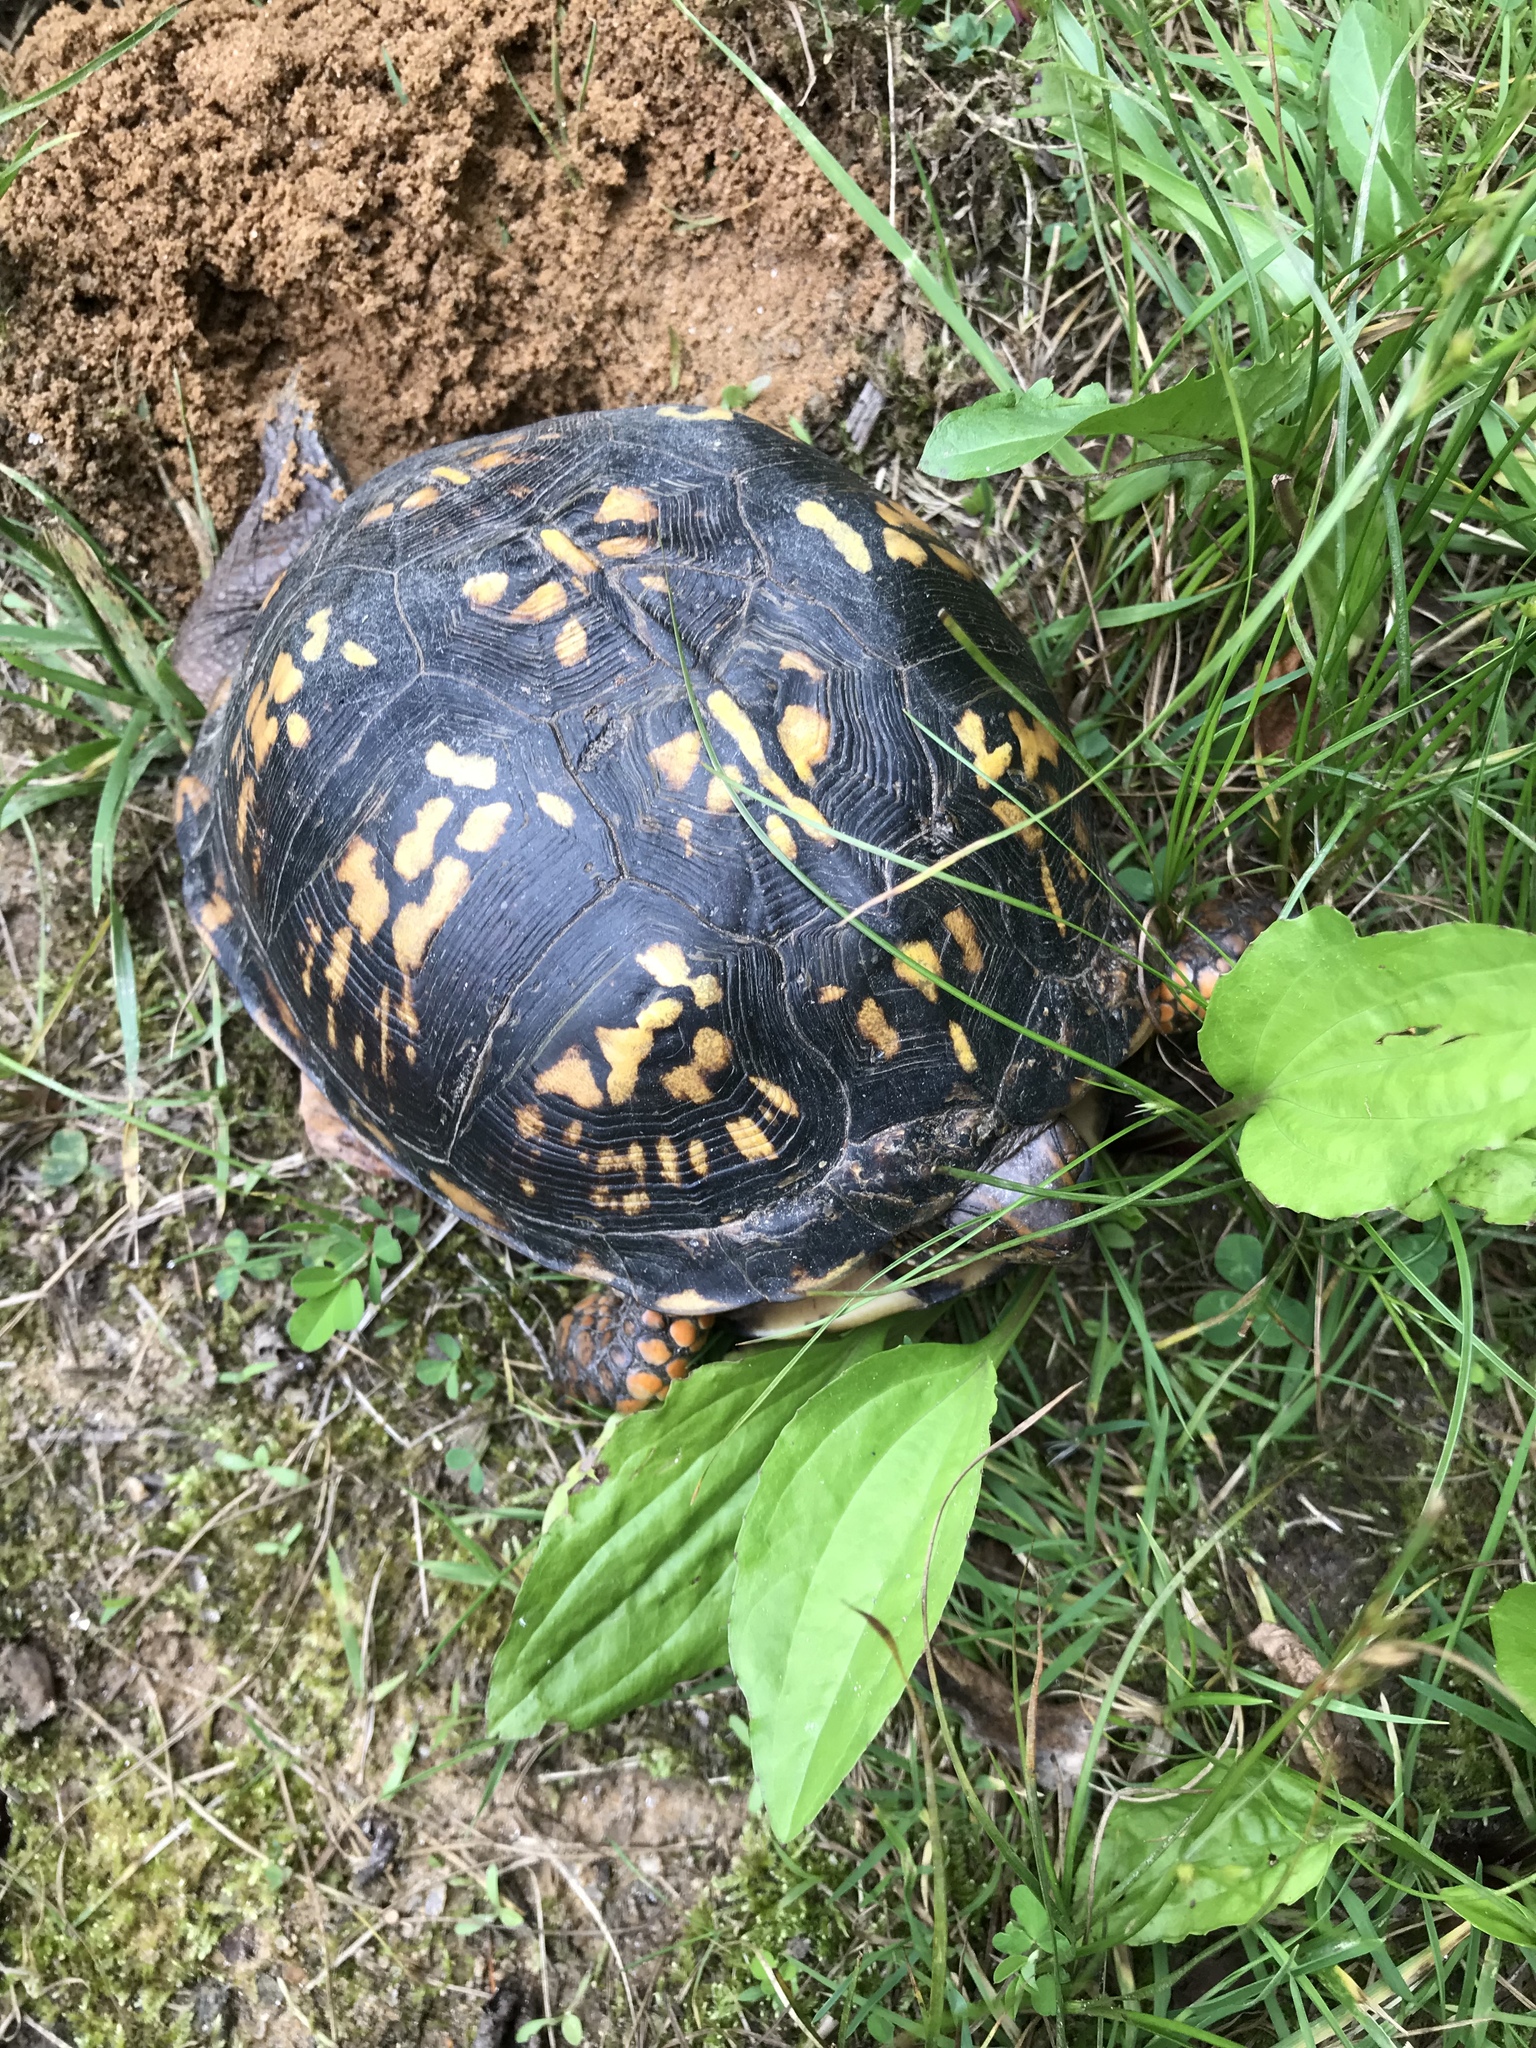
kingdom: Animalia
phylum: Chordata
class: Testudines
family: Emydidae
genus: Terrapene
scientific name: Terrapene carolina
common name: Common box turtle
